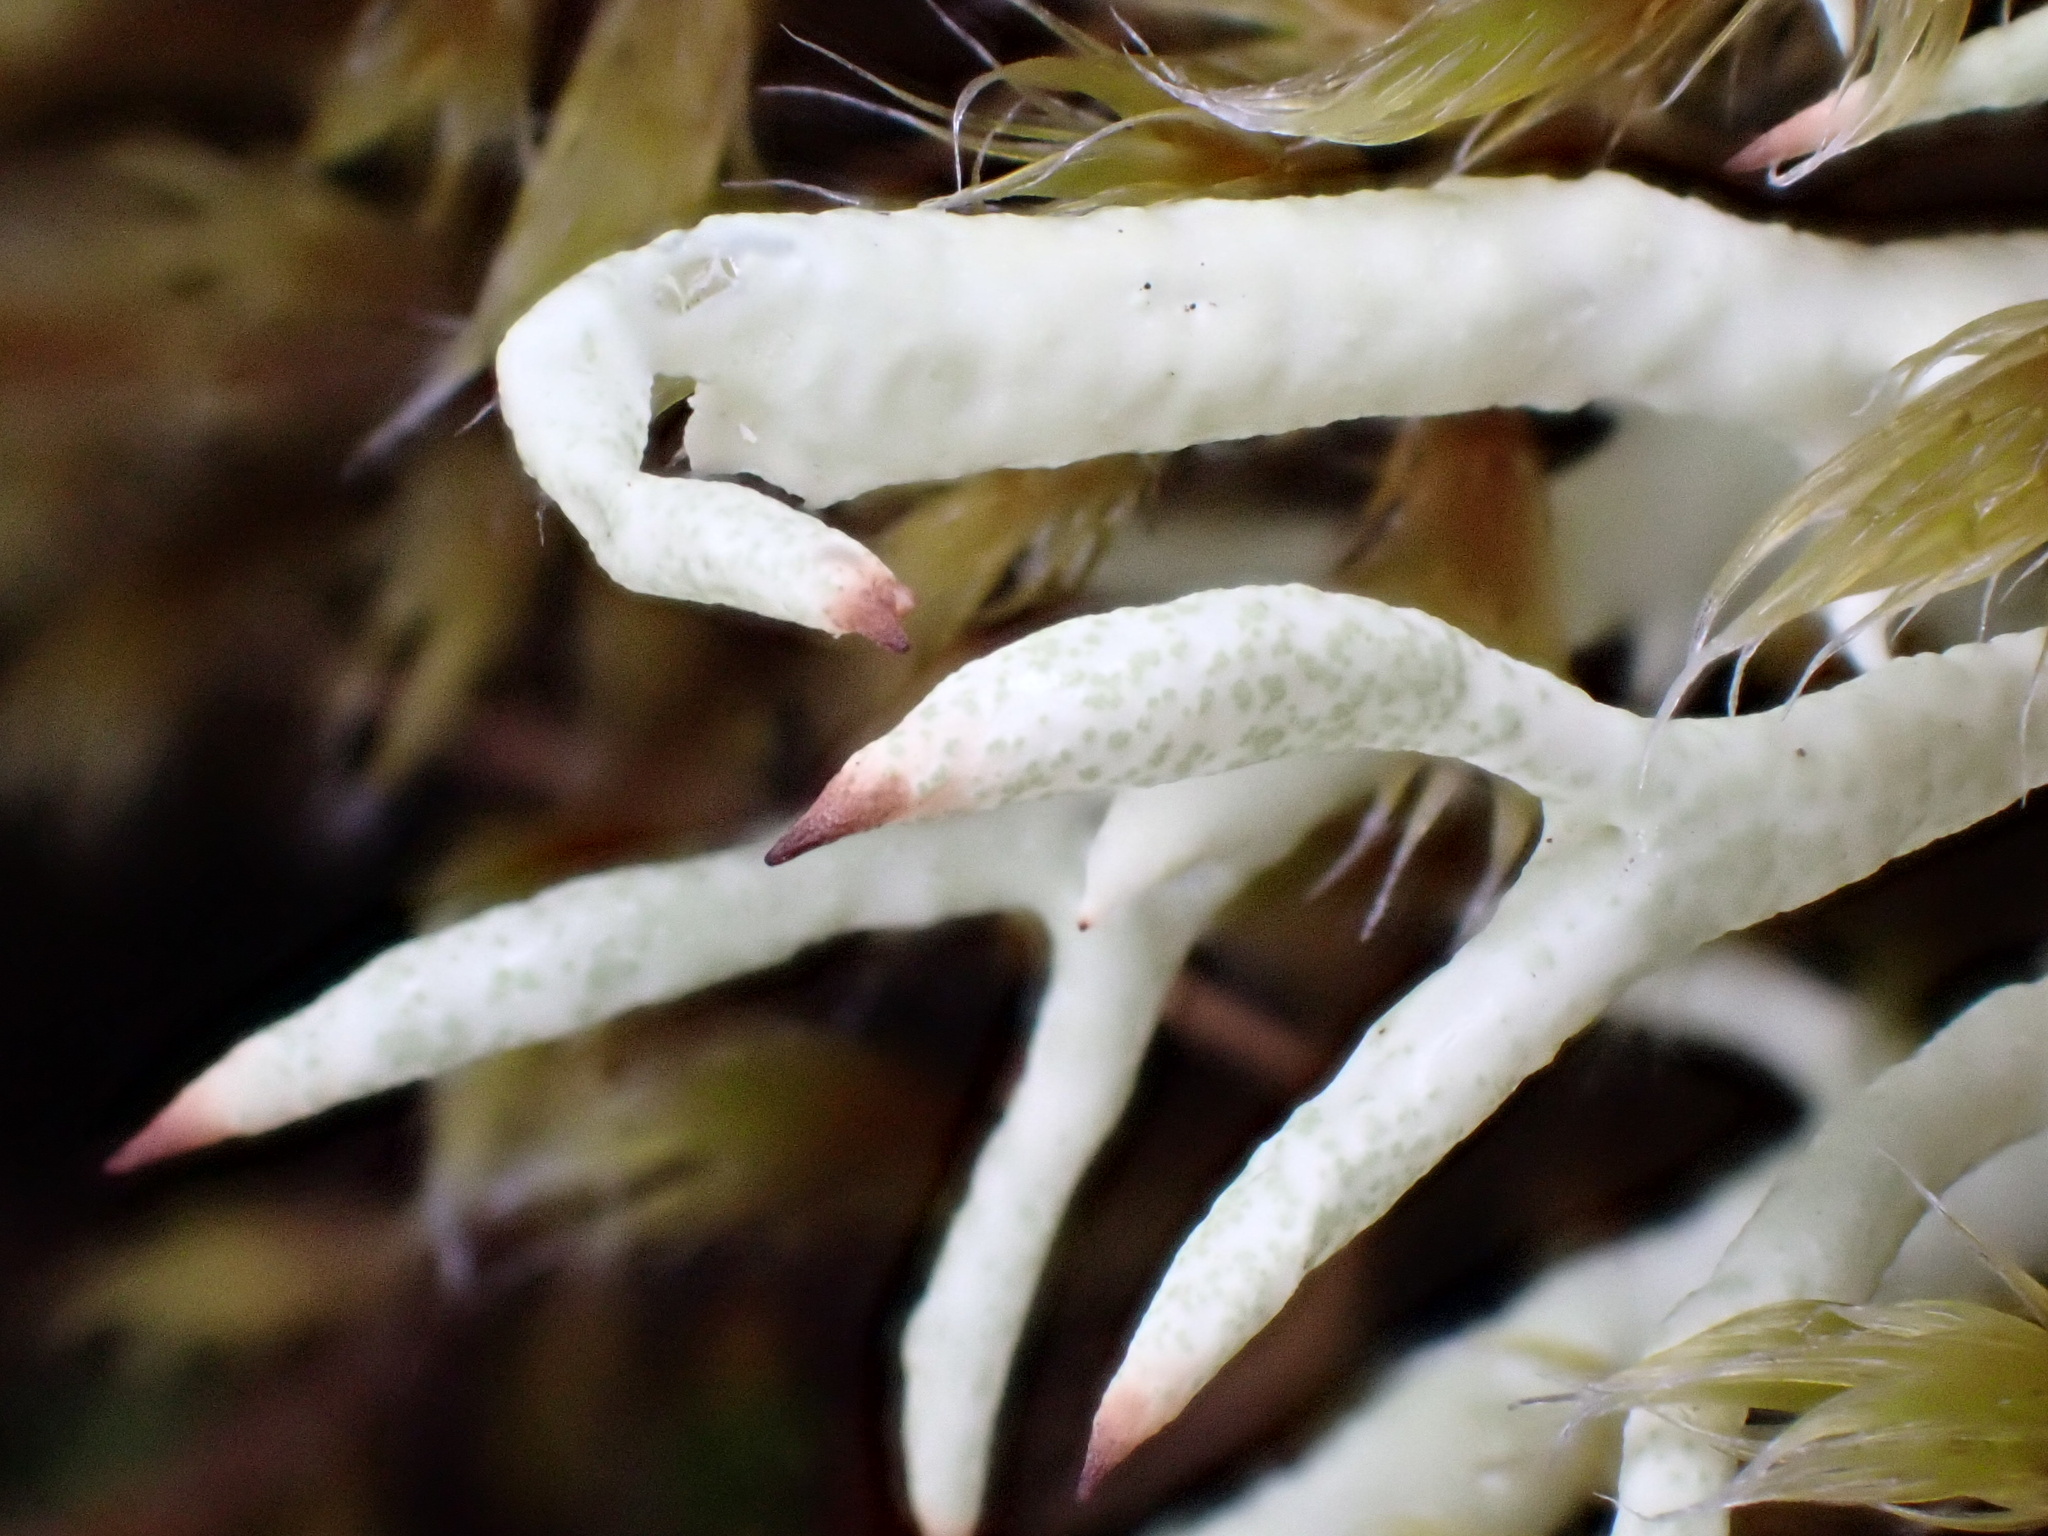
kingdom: Fungi
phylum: Ascomycota
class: Lecanoromycetes
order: Lecanorales
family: Cladoniaceae
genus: Cladonia
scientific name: Cladonia uncialis
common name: Thorn lichen
